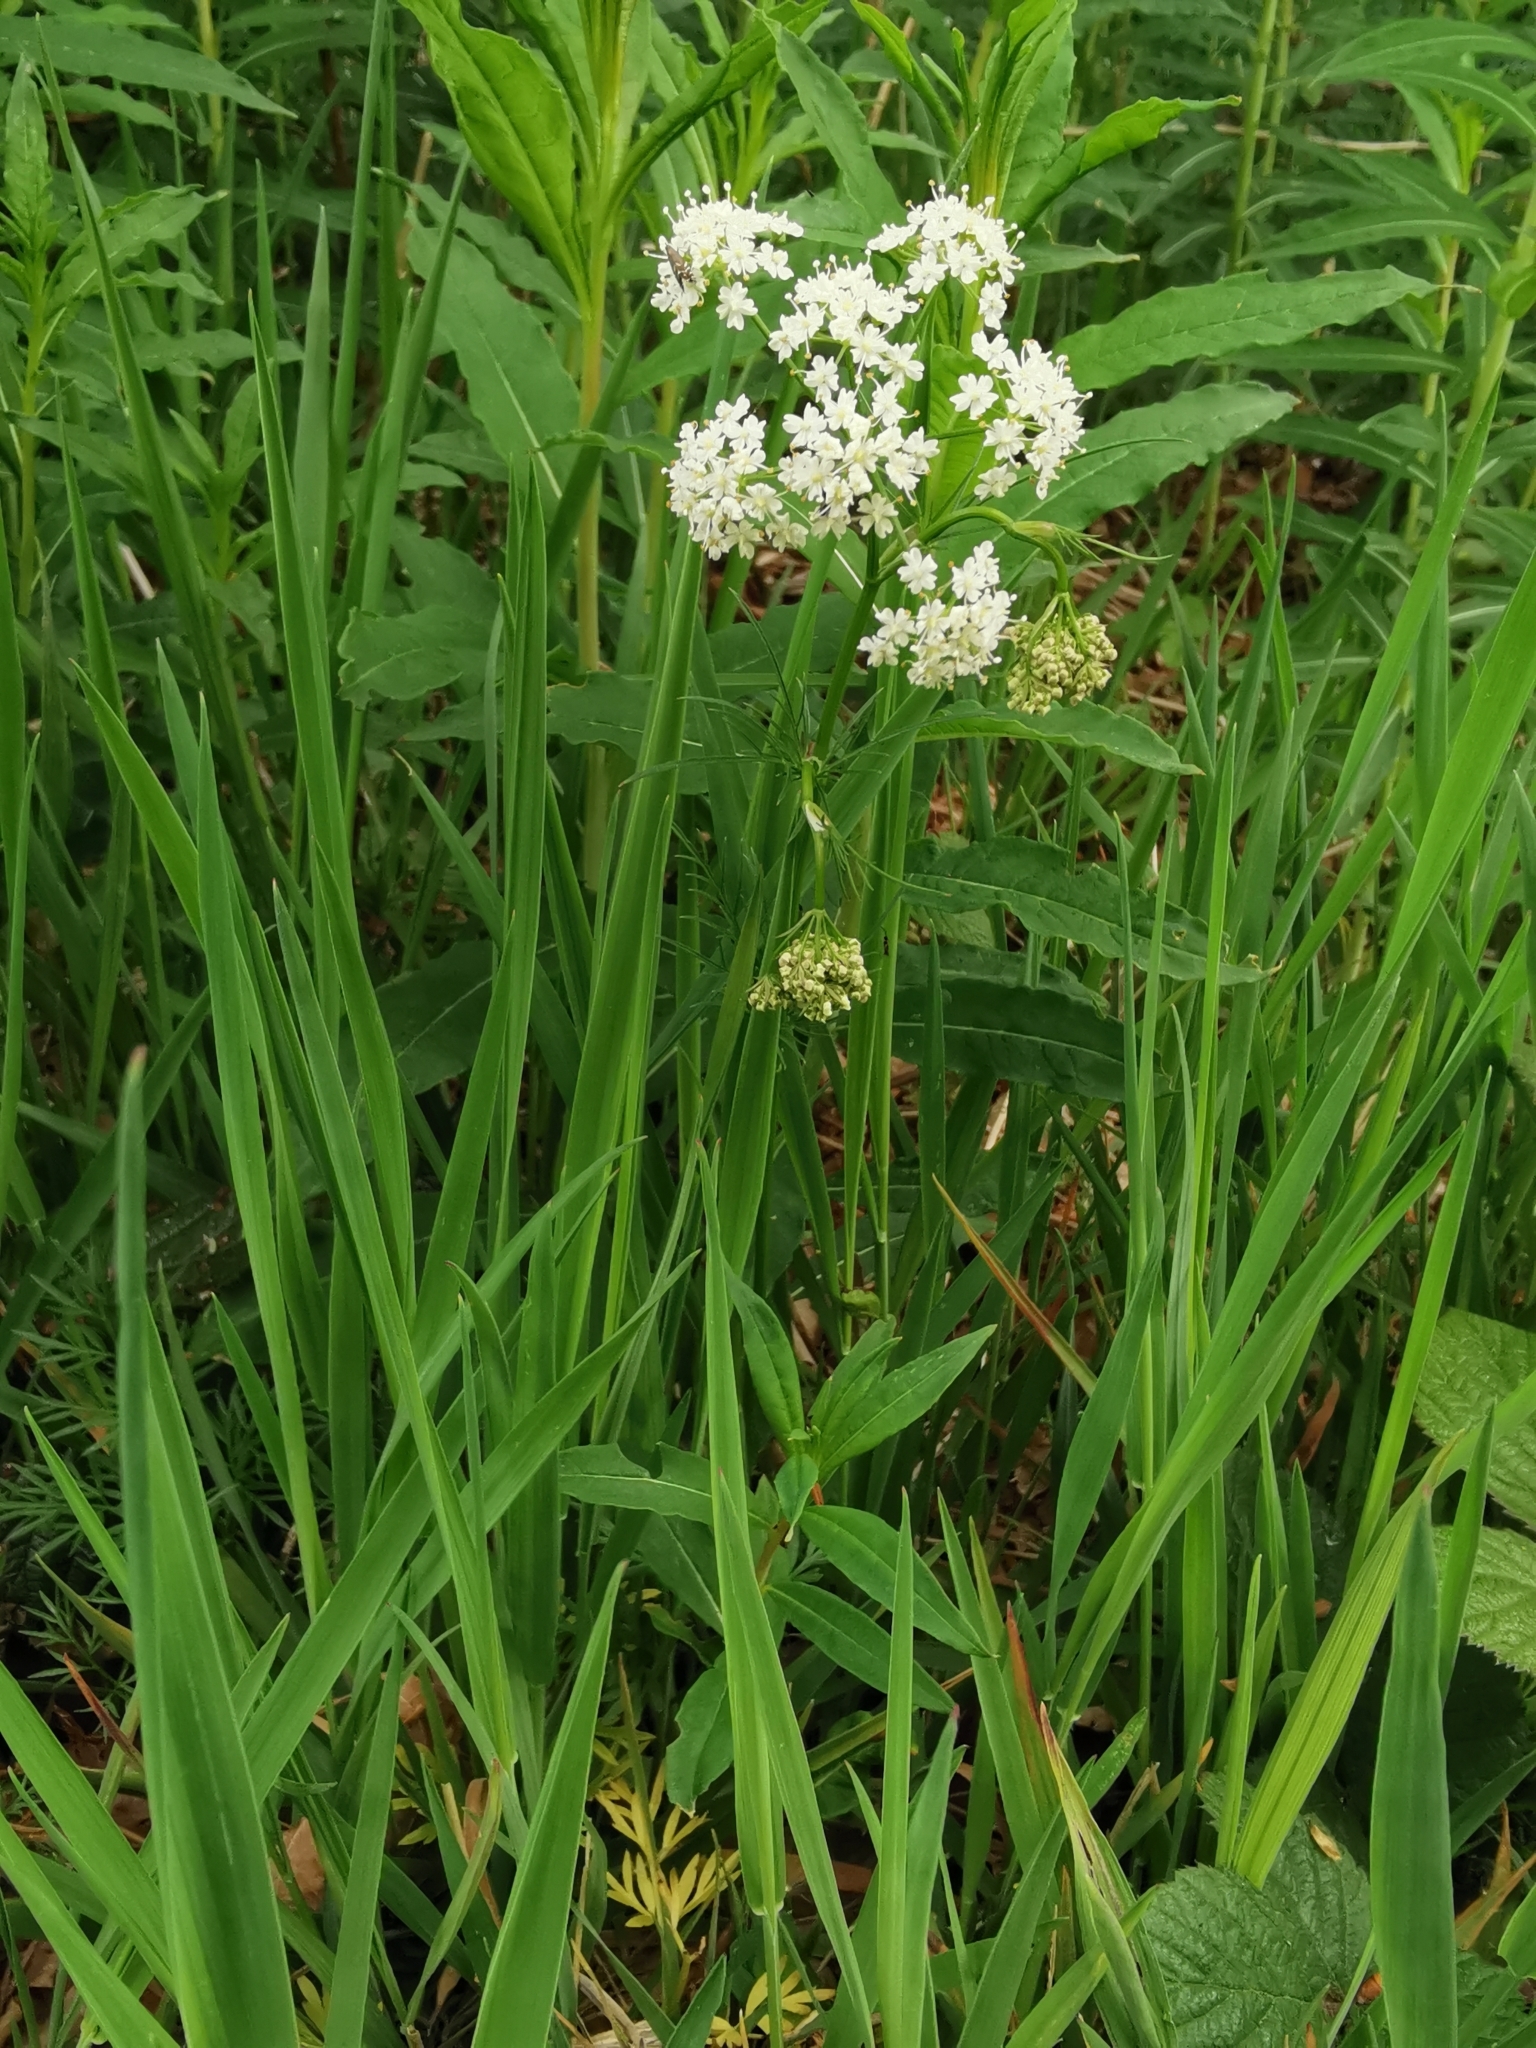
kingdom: Plantae
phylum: Tracheophyta
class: Magnoliopsida
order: Apiales
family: Apiaceae
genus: Conopodium
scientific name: Conopodium majus
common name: Pignut
